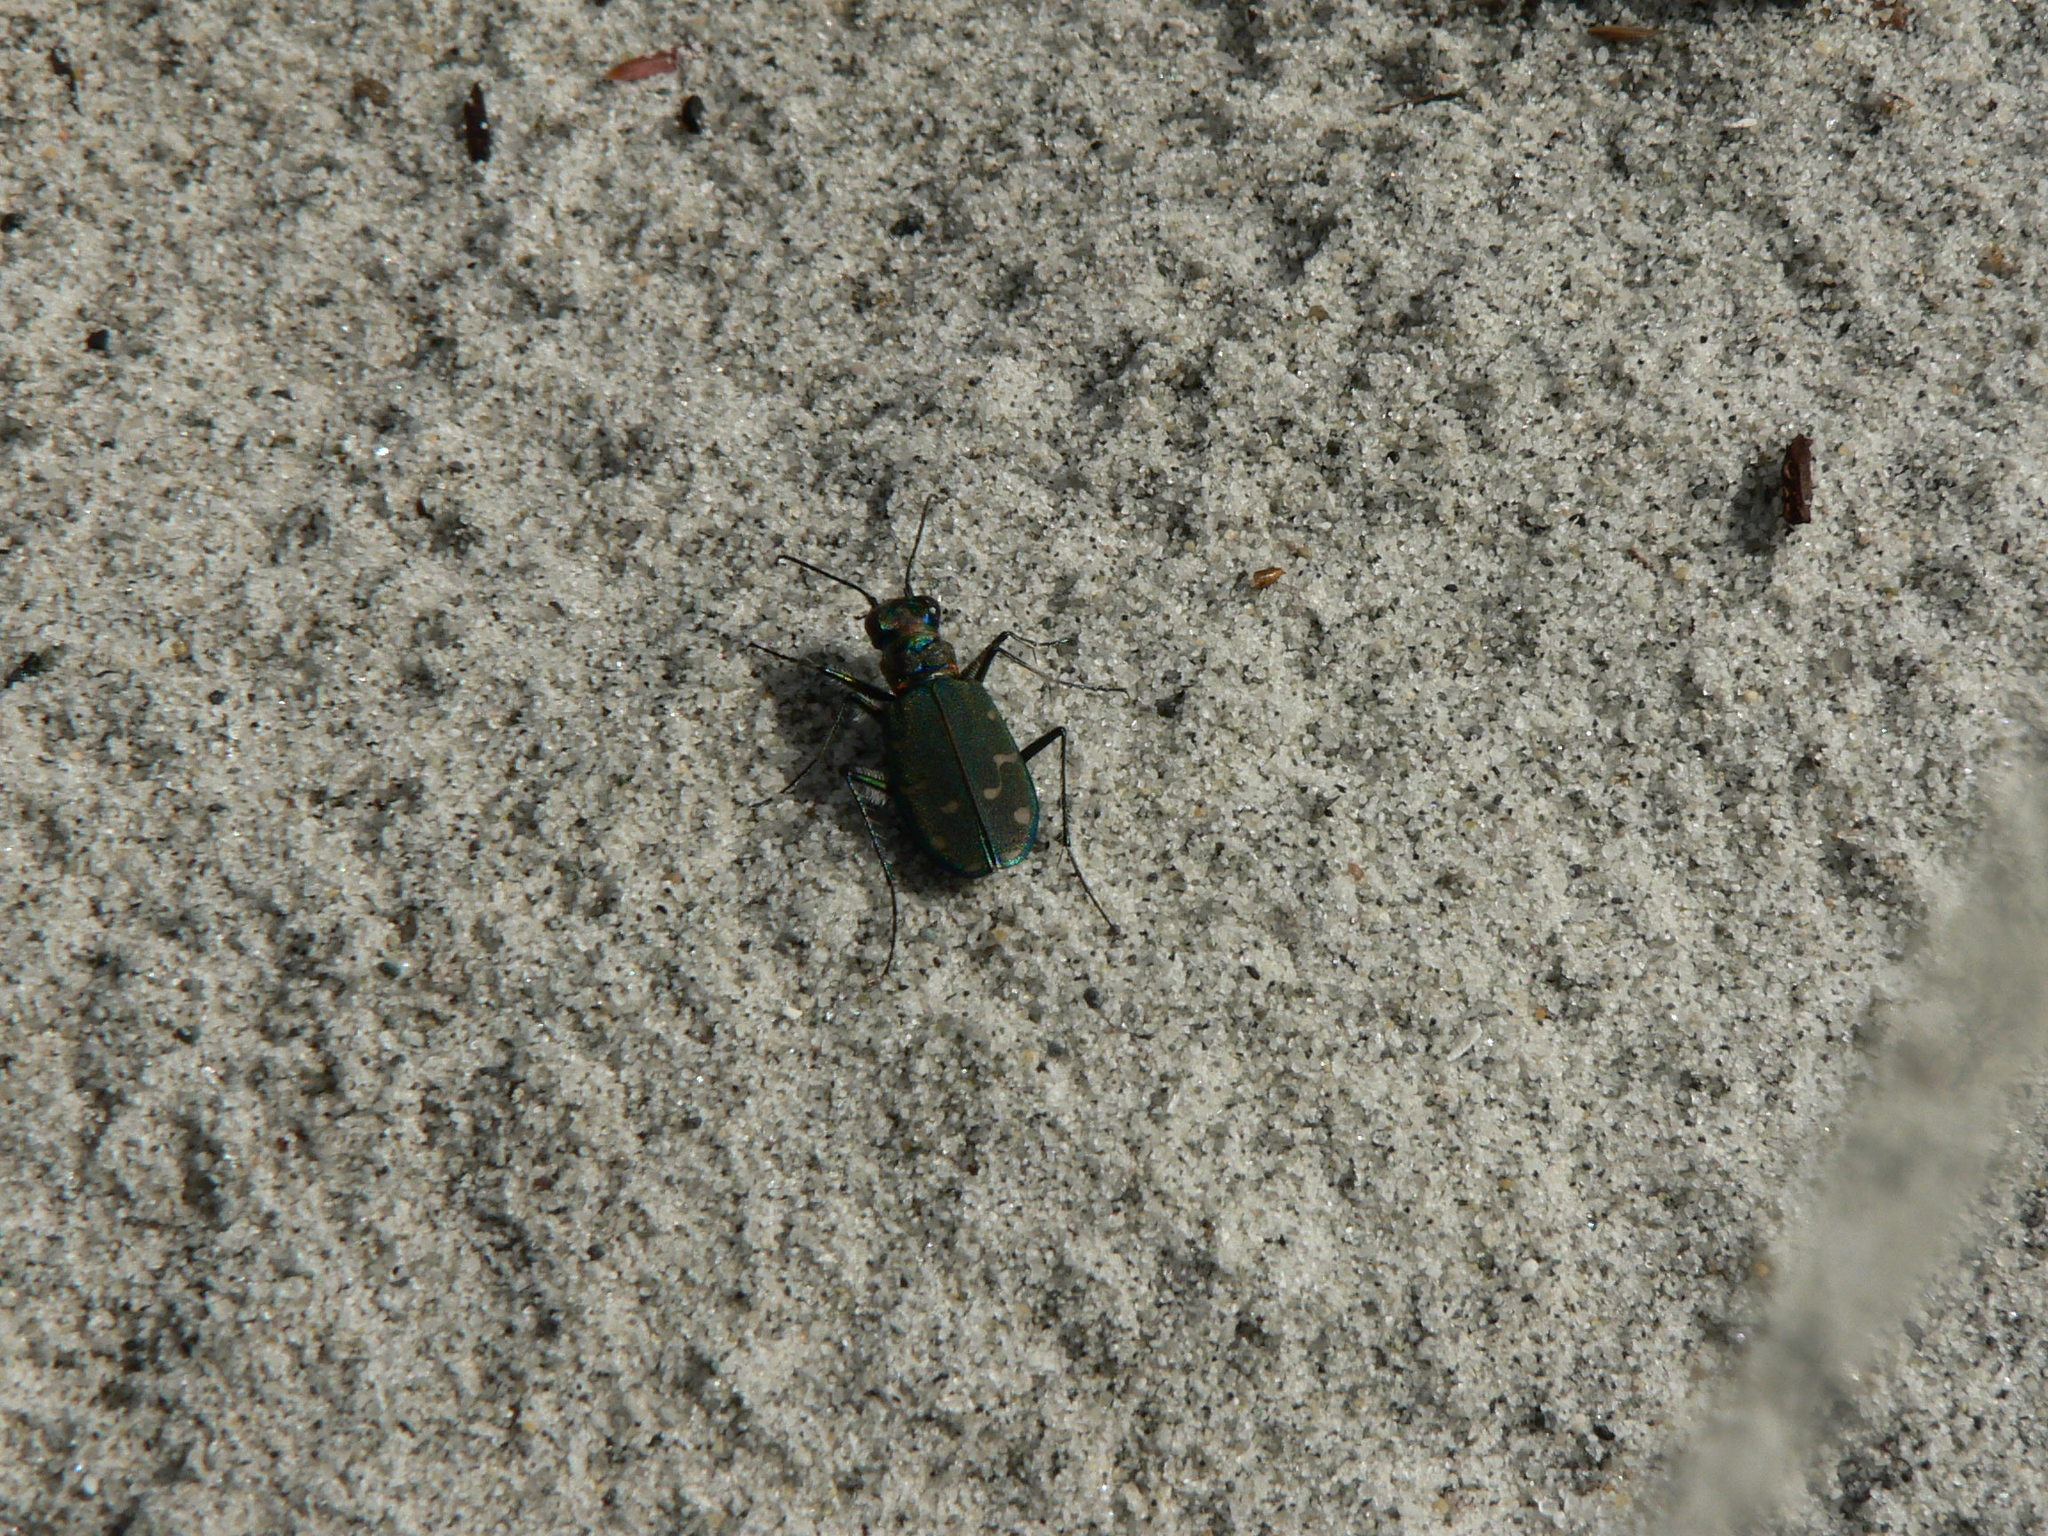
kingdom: Animalia
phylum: Arthropoda
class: Insecta
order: Coleoptera
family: Carabidae
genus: Cicindela
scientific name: Cicindela oregona
